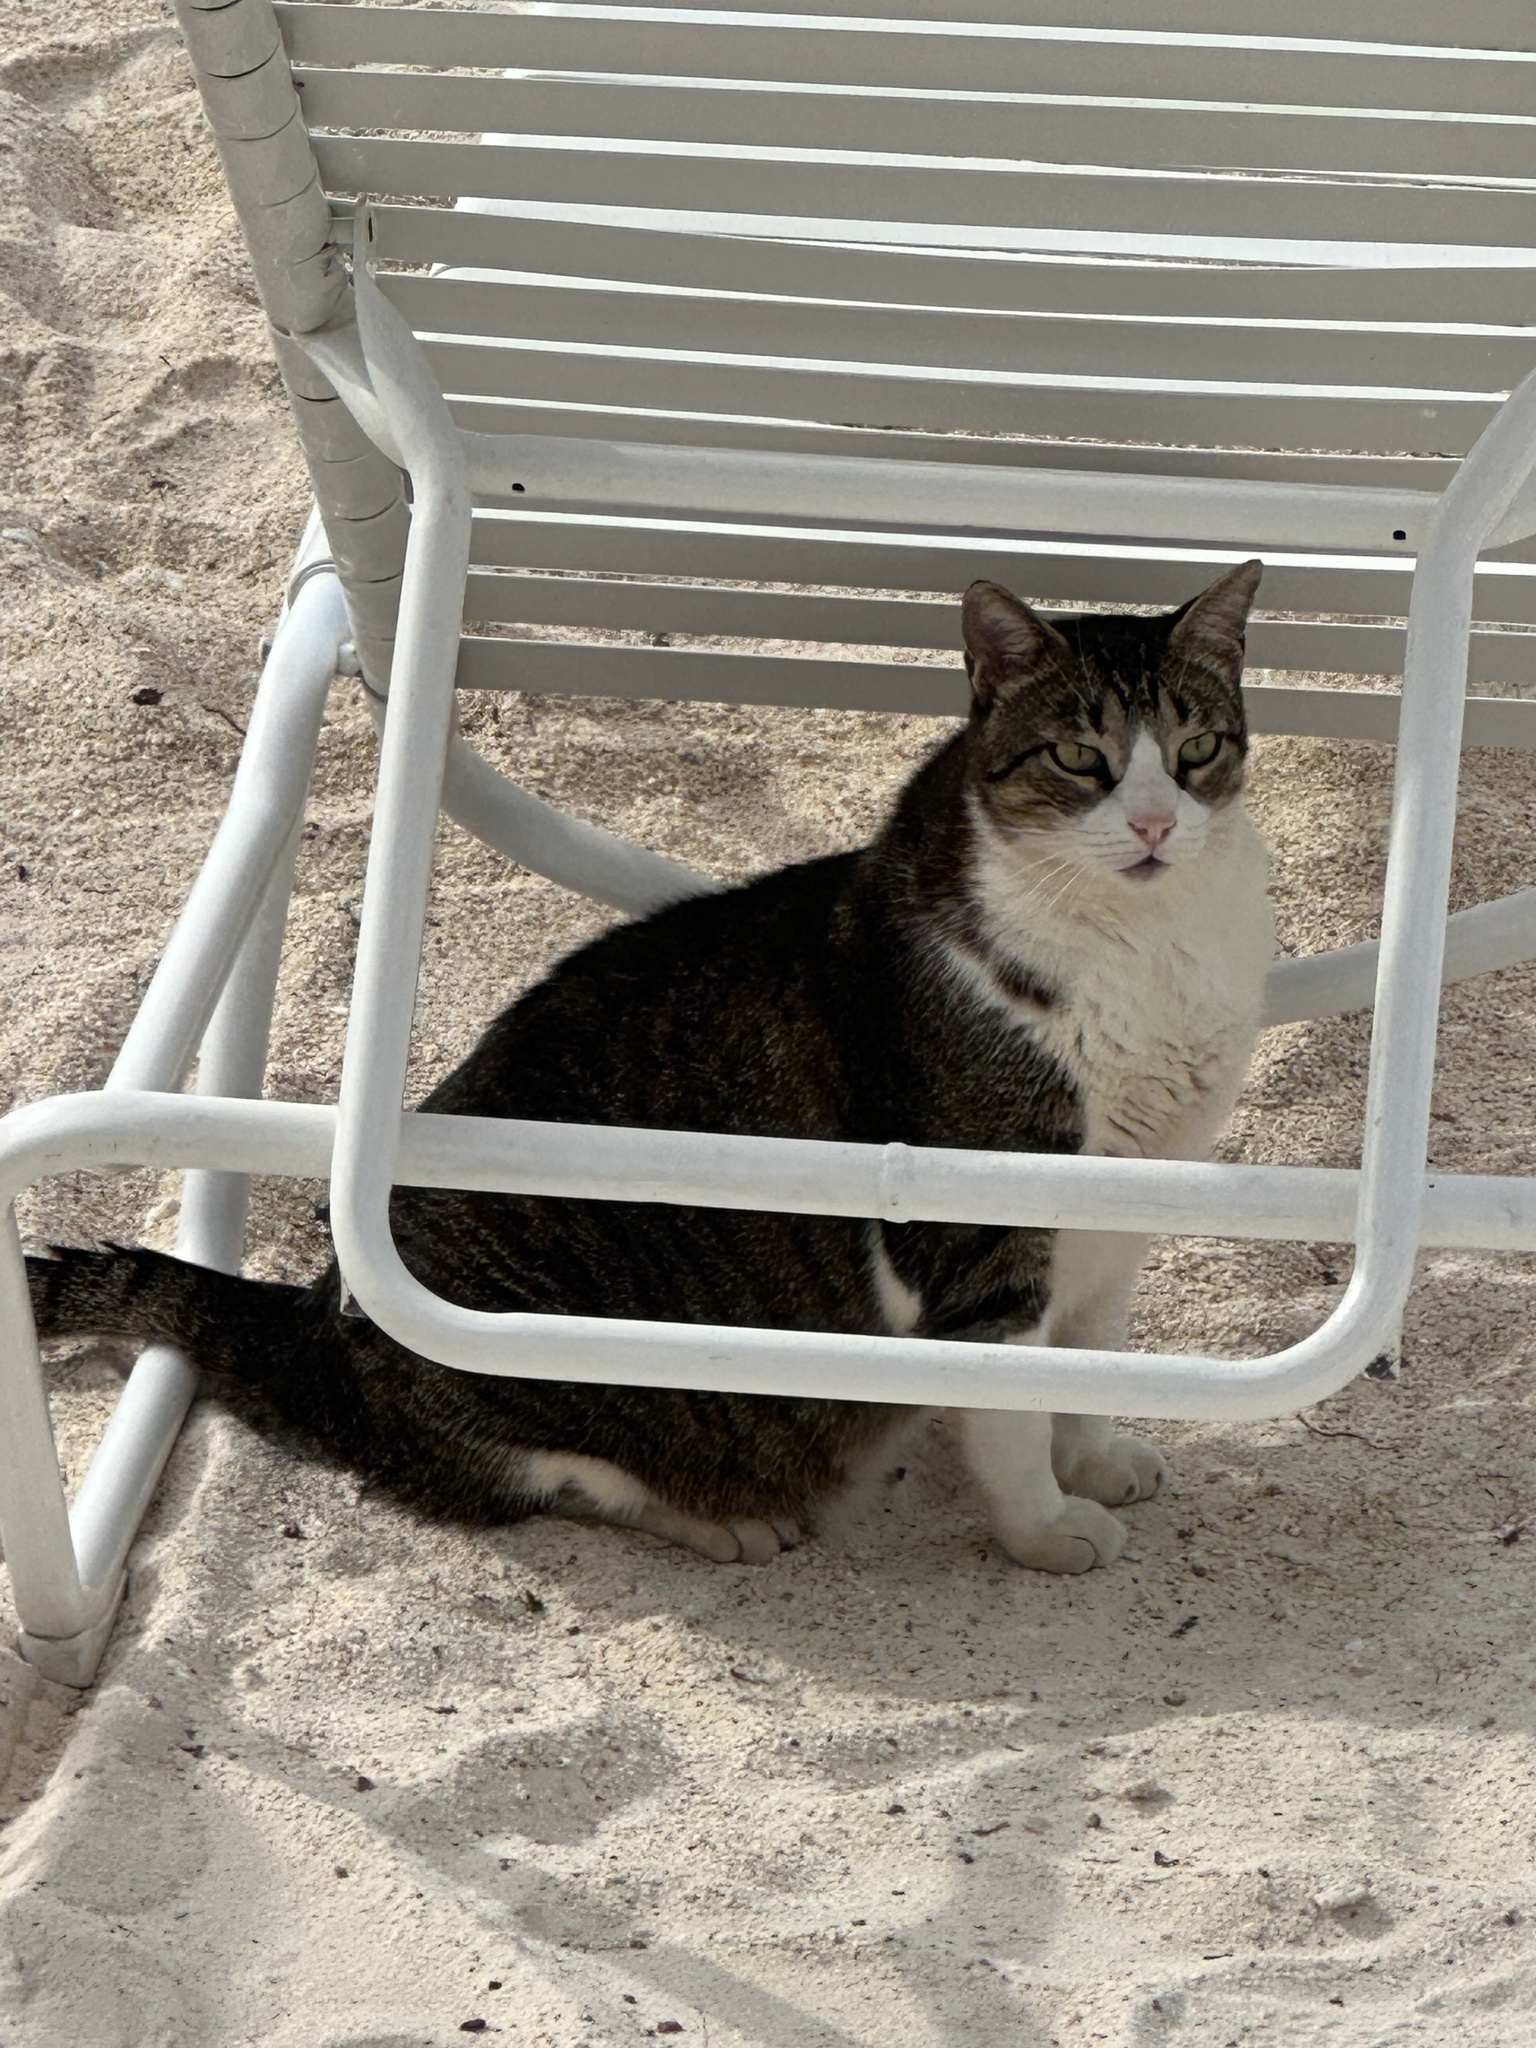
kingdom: Animalia
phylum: Chordata
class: Mammalia
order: Carnivora
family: Felidae
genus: Felis
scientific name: Felis catus
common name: Domestic cat
